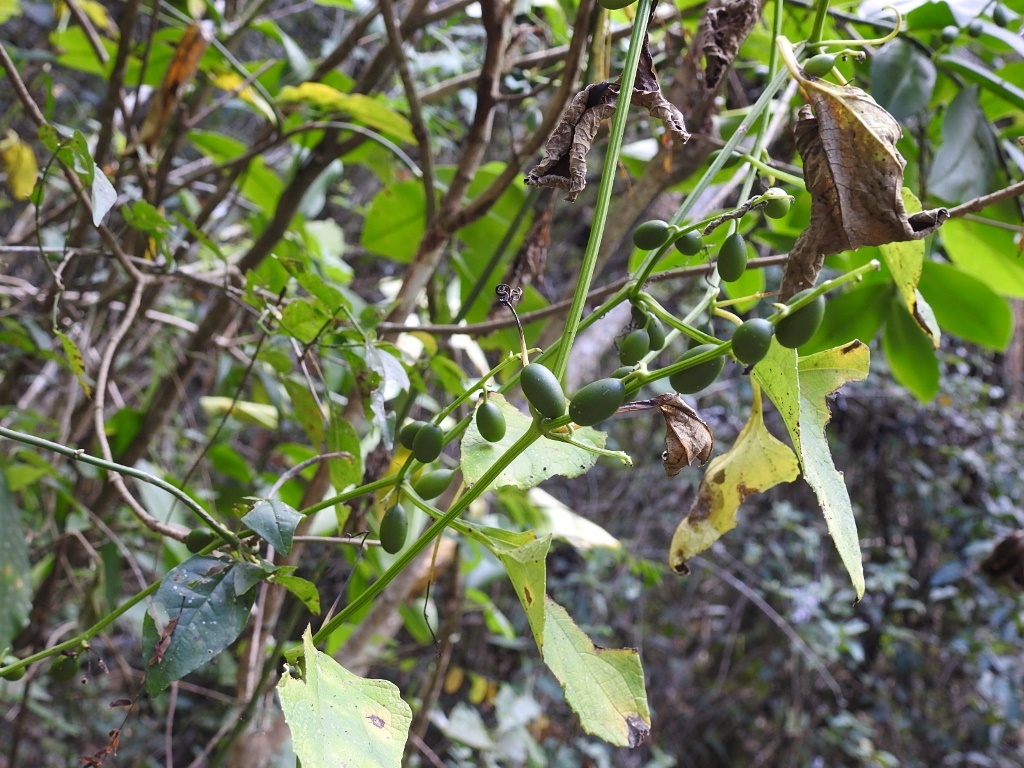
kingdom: Plantae
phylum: Tracheophyta
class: Magnoliopsida
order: Cucurbitales
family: Cucurbitaceae
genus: Cayaponia
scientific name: Cayaponia racemosa
